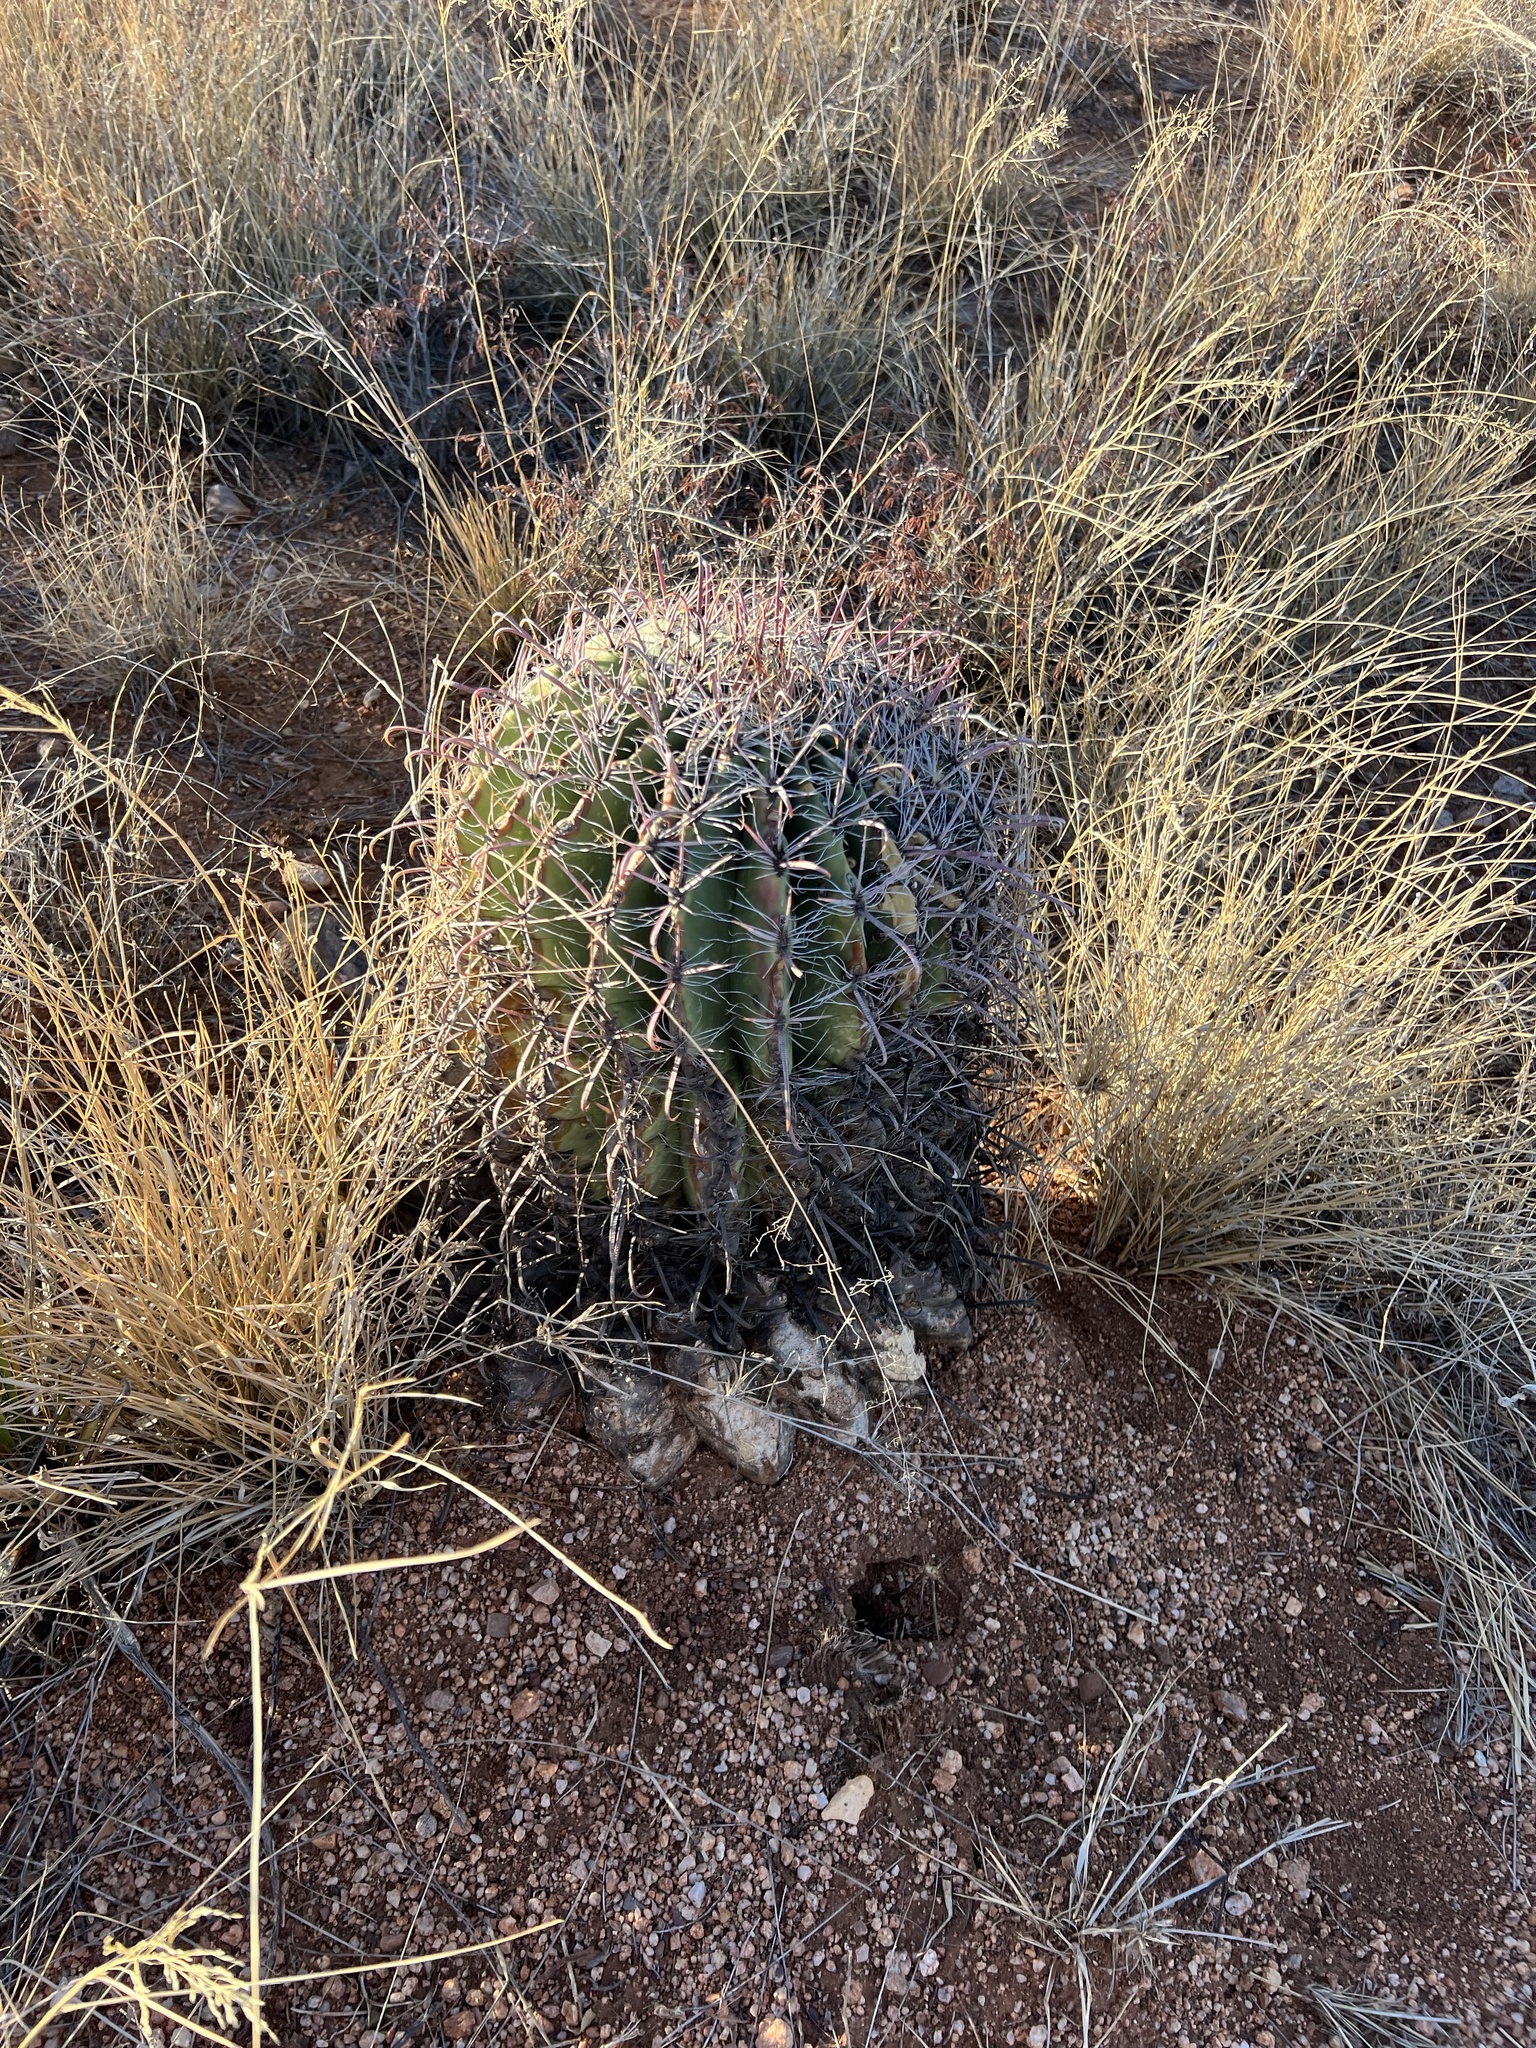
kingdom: Plantae
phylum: Tracheophyta
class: Magnoliopsida
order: Caryophyllales
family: Cactaceae
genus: Ferocactus
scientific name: Ferocactus wislizeni
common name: Candy barrel cactus
